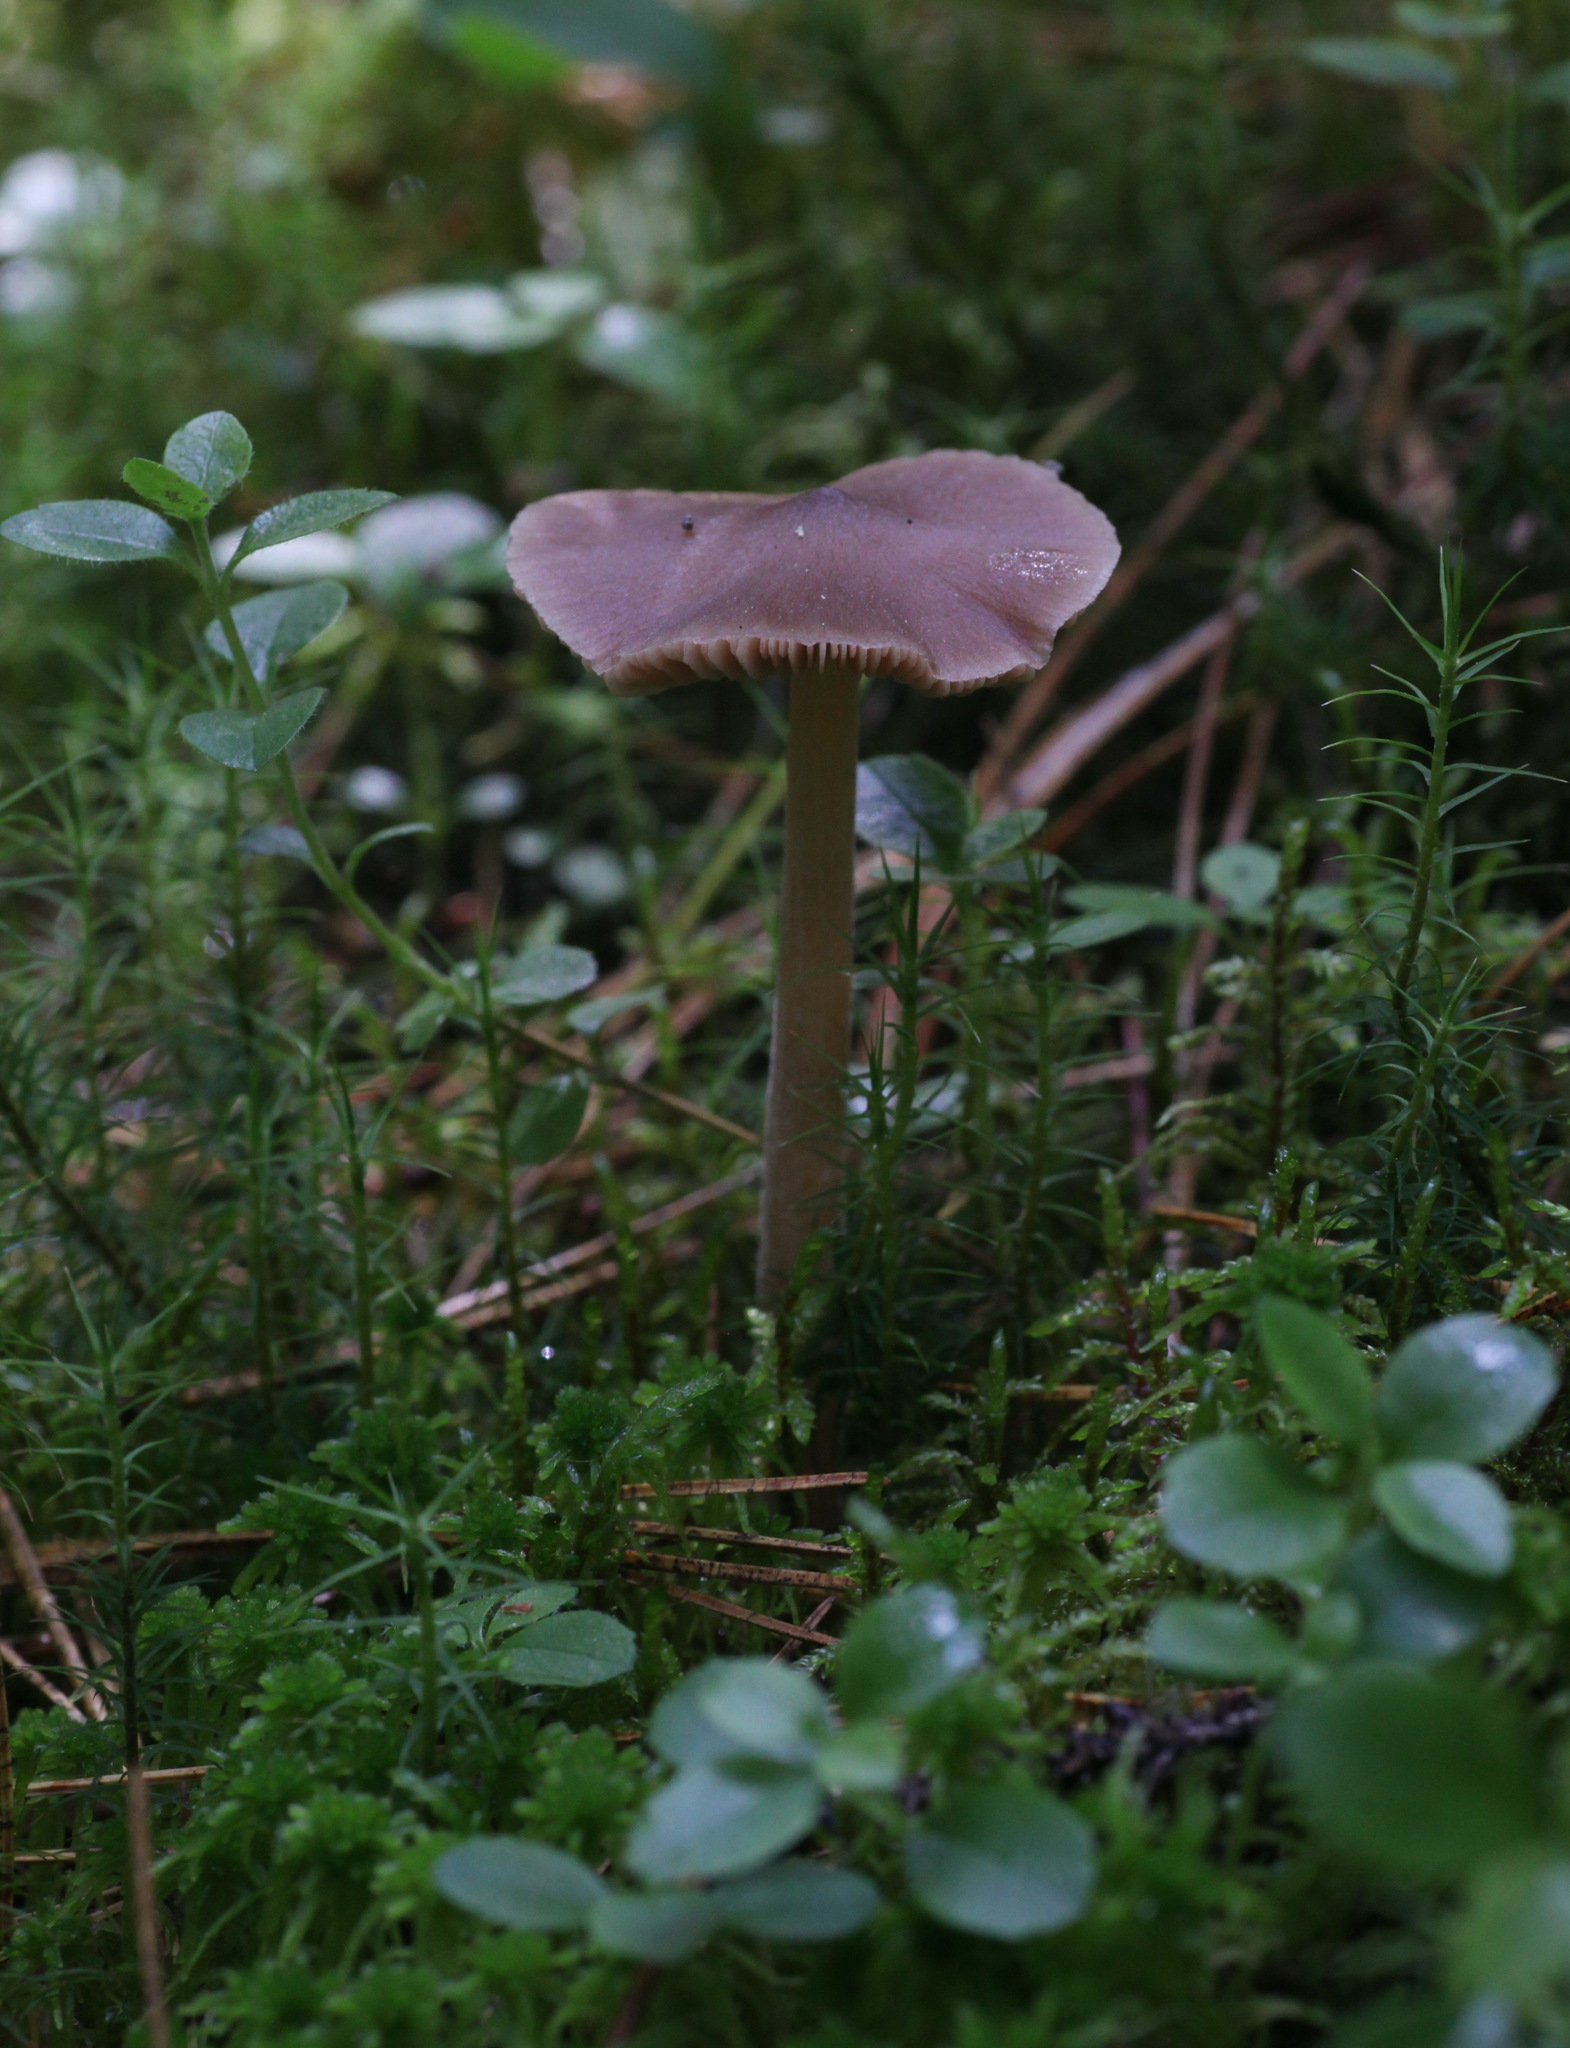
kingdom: Fungi
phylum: Basidiomycota
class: Agaricomycetes
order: Agaricales
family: Entolomataceae
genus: Entoloma
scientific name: Entoloma lanuginosipes
